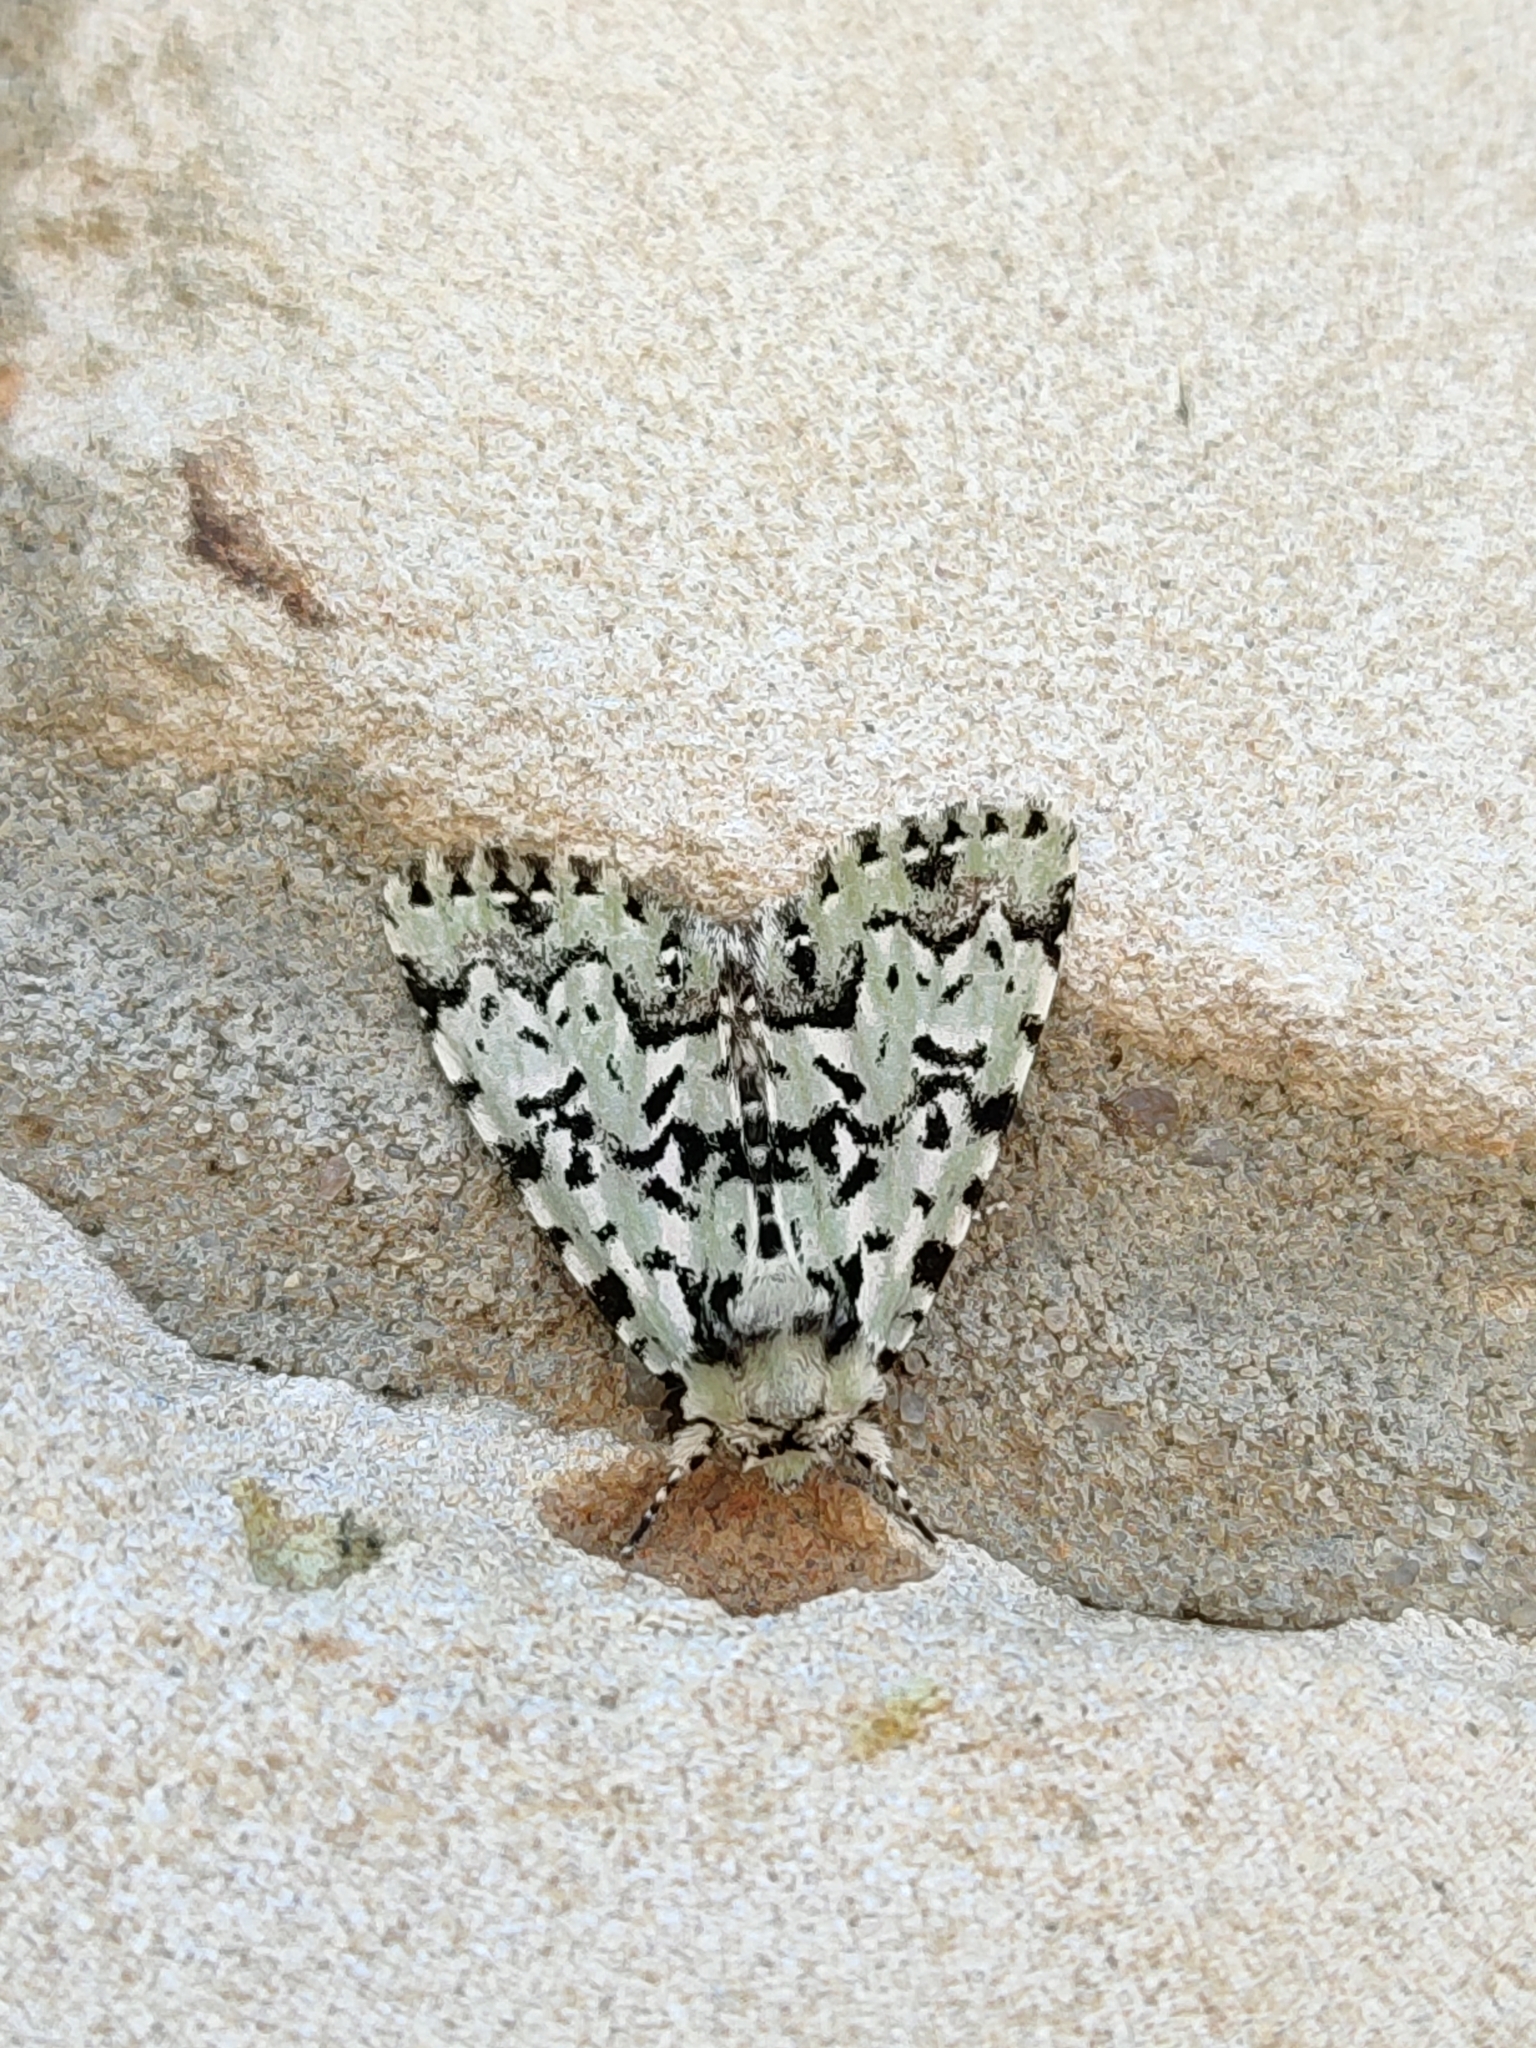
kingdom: Animalia
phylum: Arthropoda
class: Insecta
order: Lepidoptera
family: Noctuidae
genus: Moma
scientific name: Moma alpium
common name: Scarce merveille du jour
